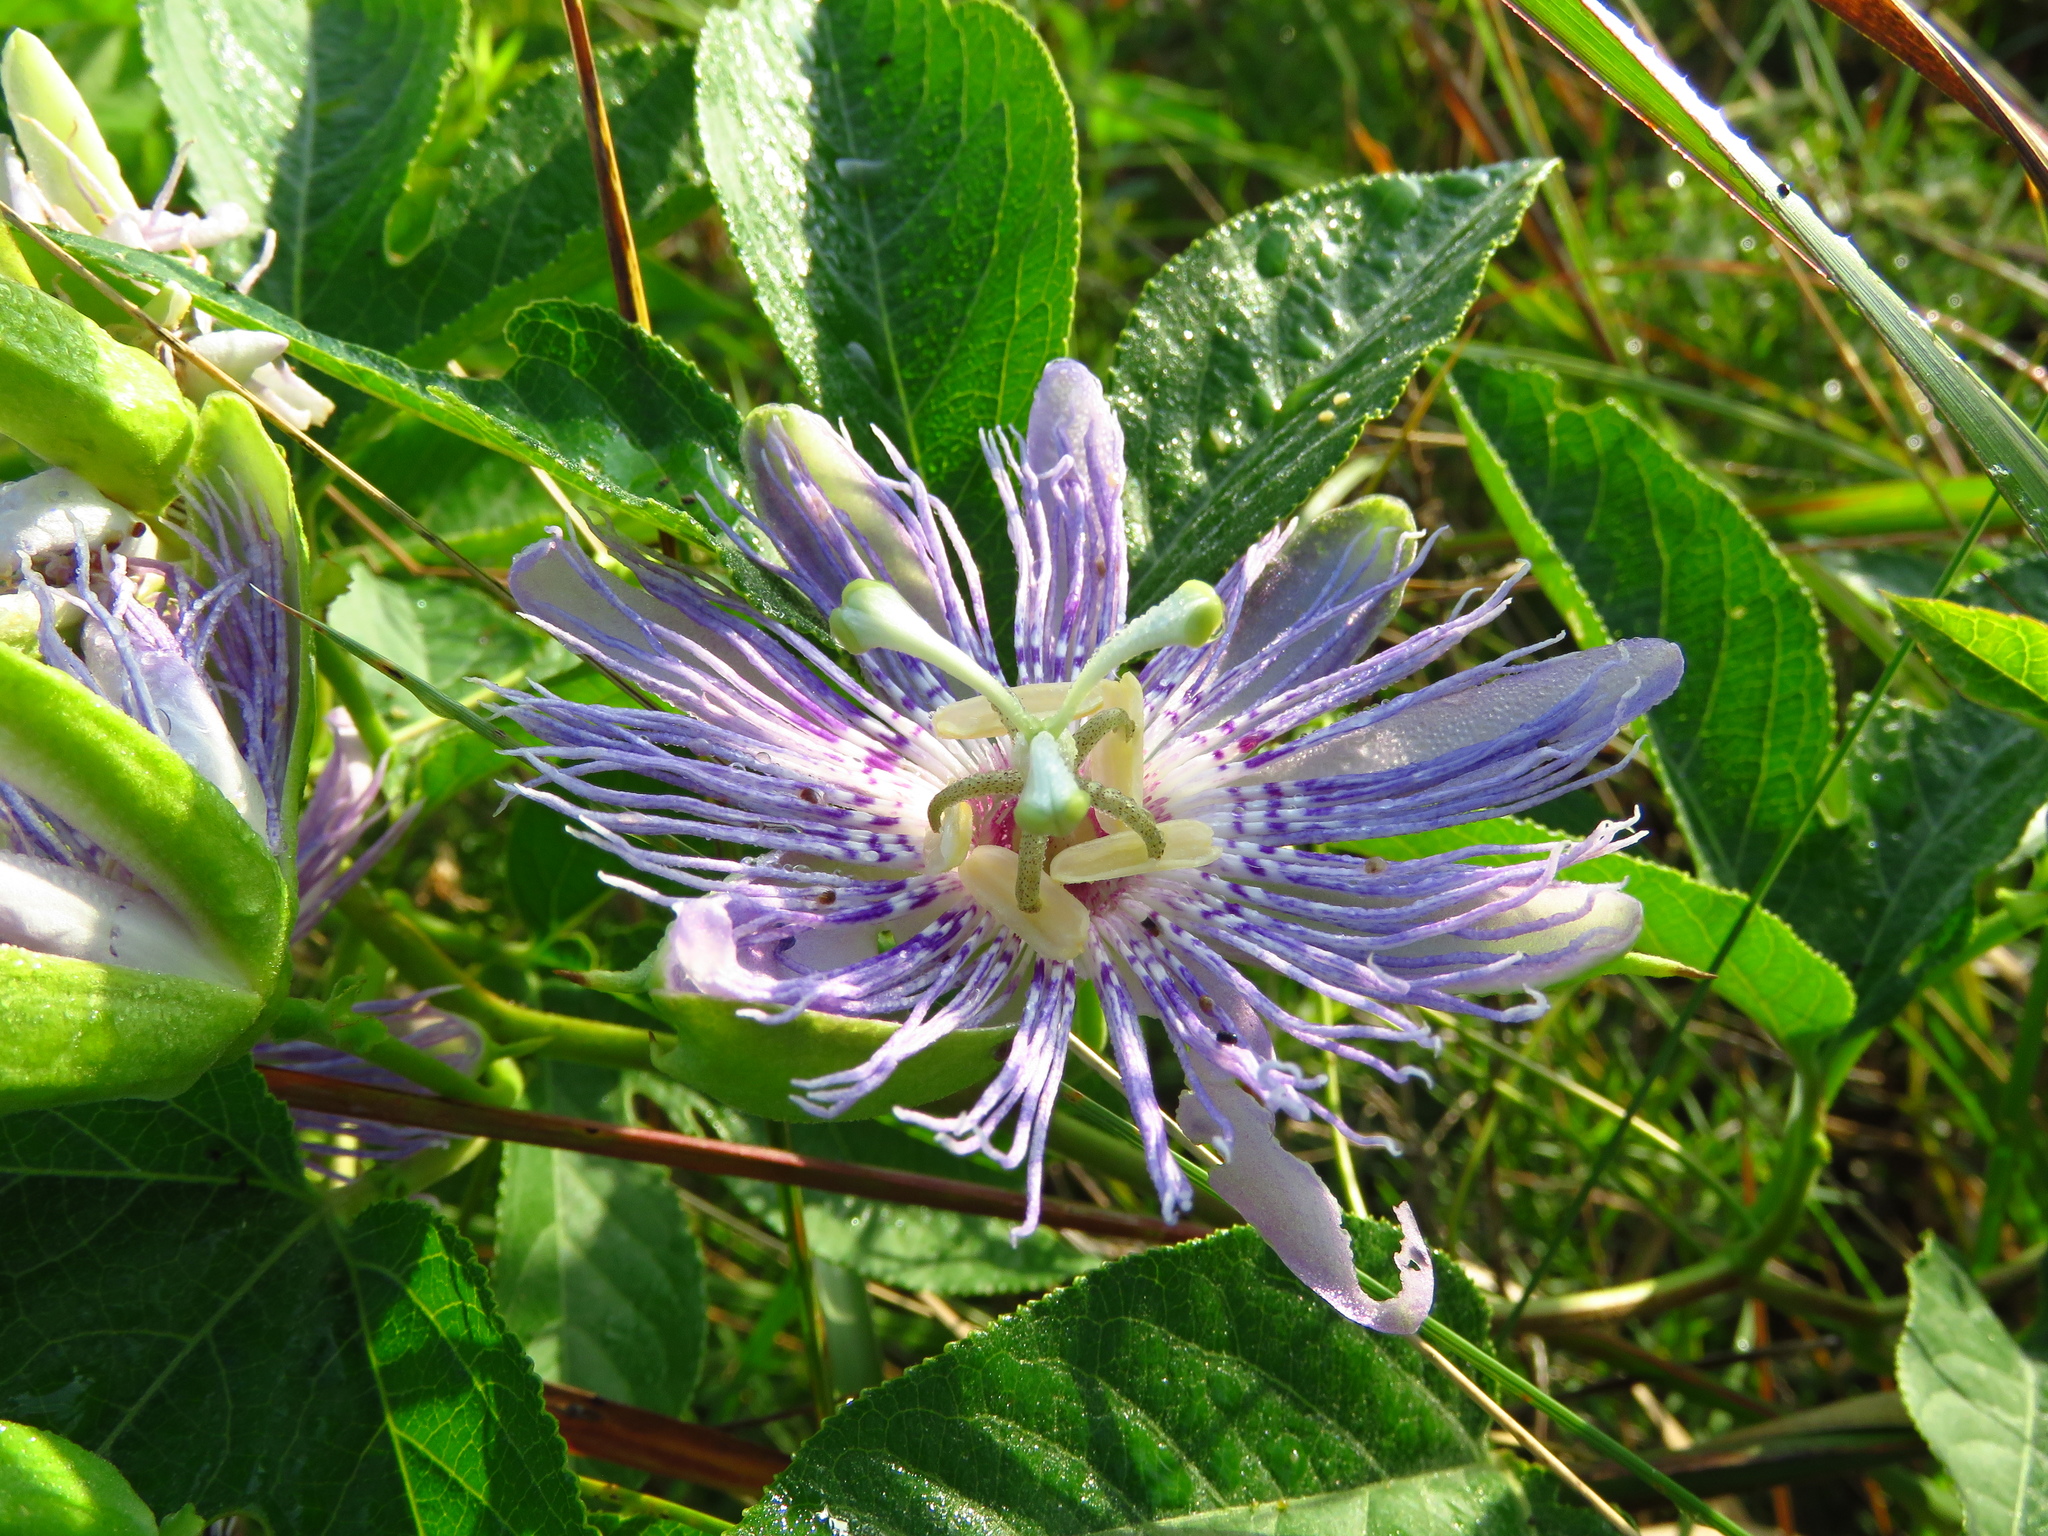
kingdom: Plantae
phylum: Tracheophyta
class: Magnoliopsida
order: Malpighiales
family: Passifloraceae
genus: Passiflora
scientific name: Passiflora incarnata
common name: Apricot-vine
